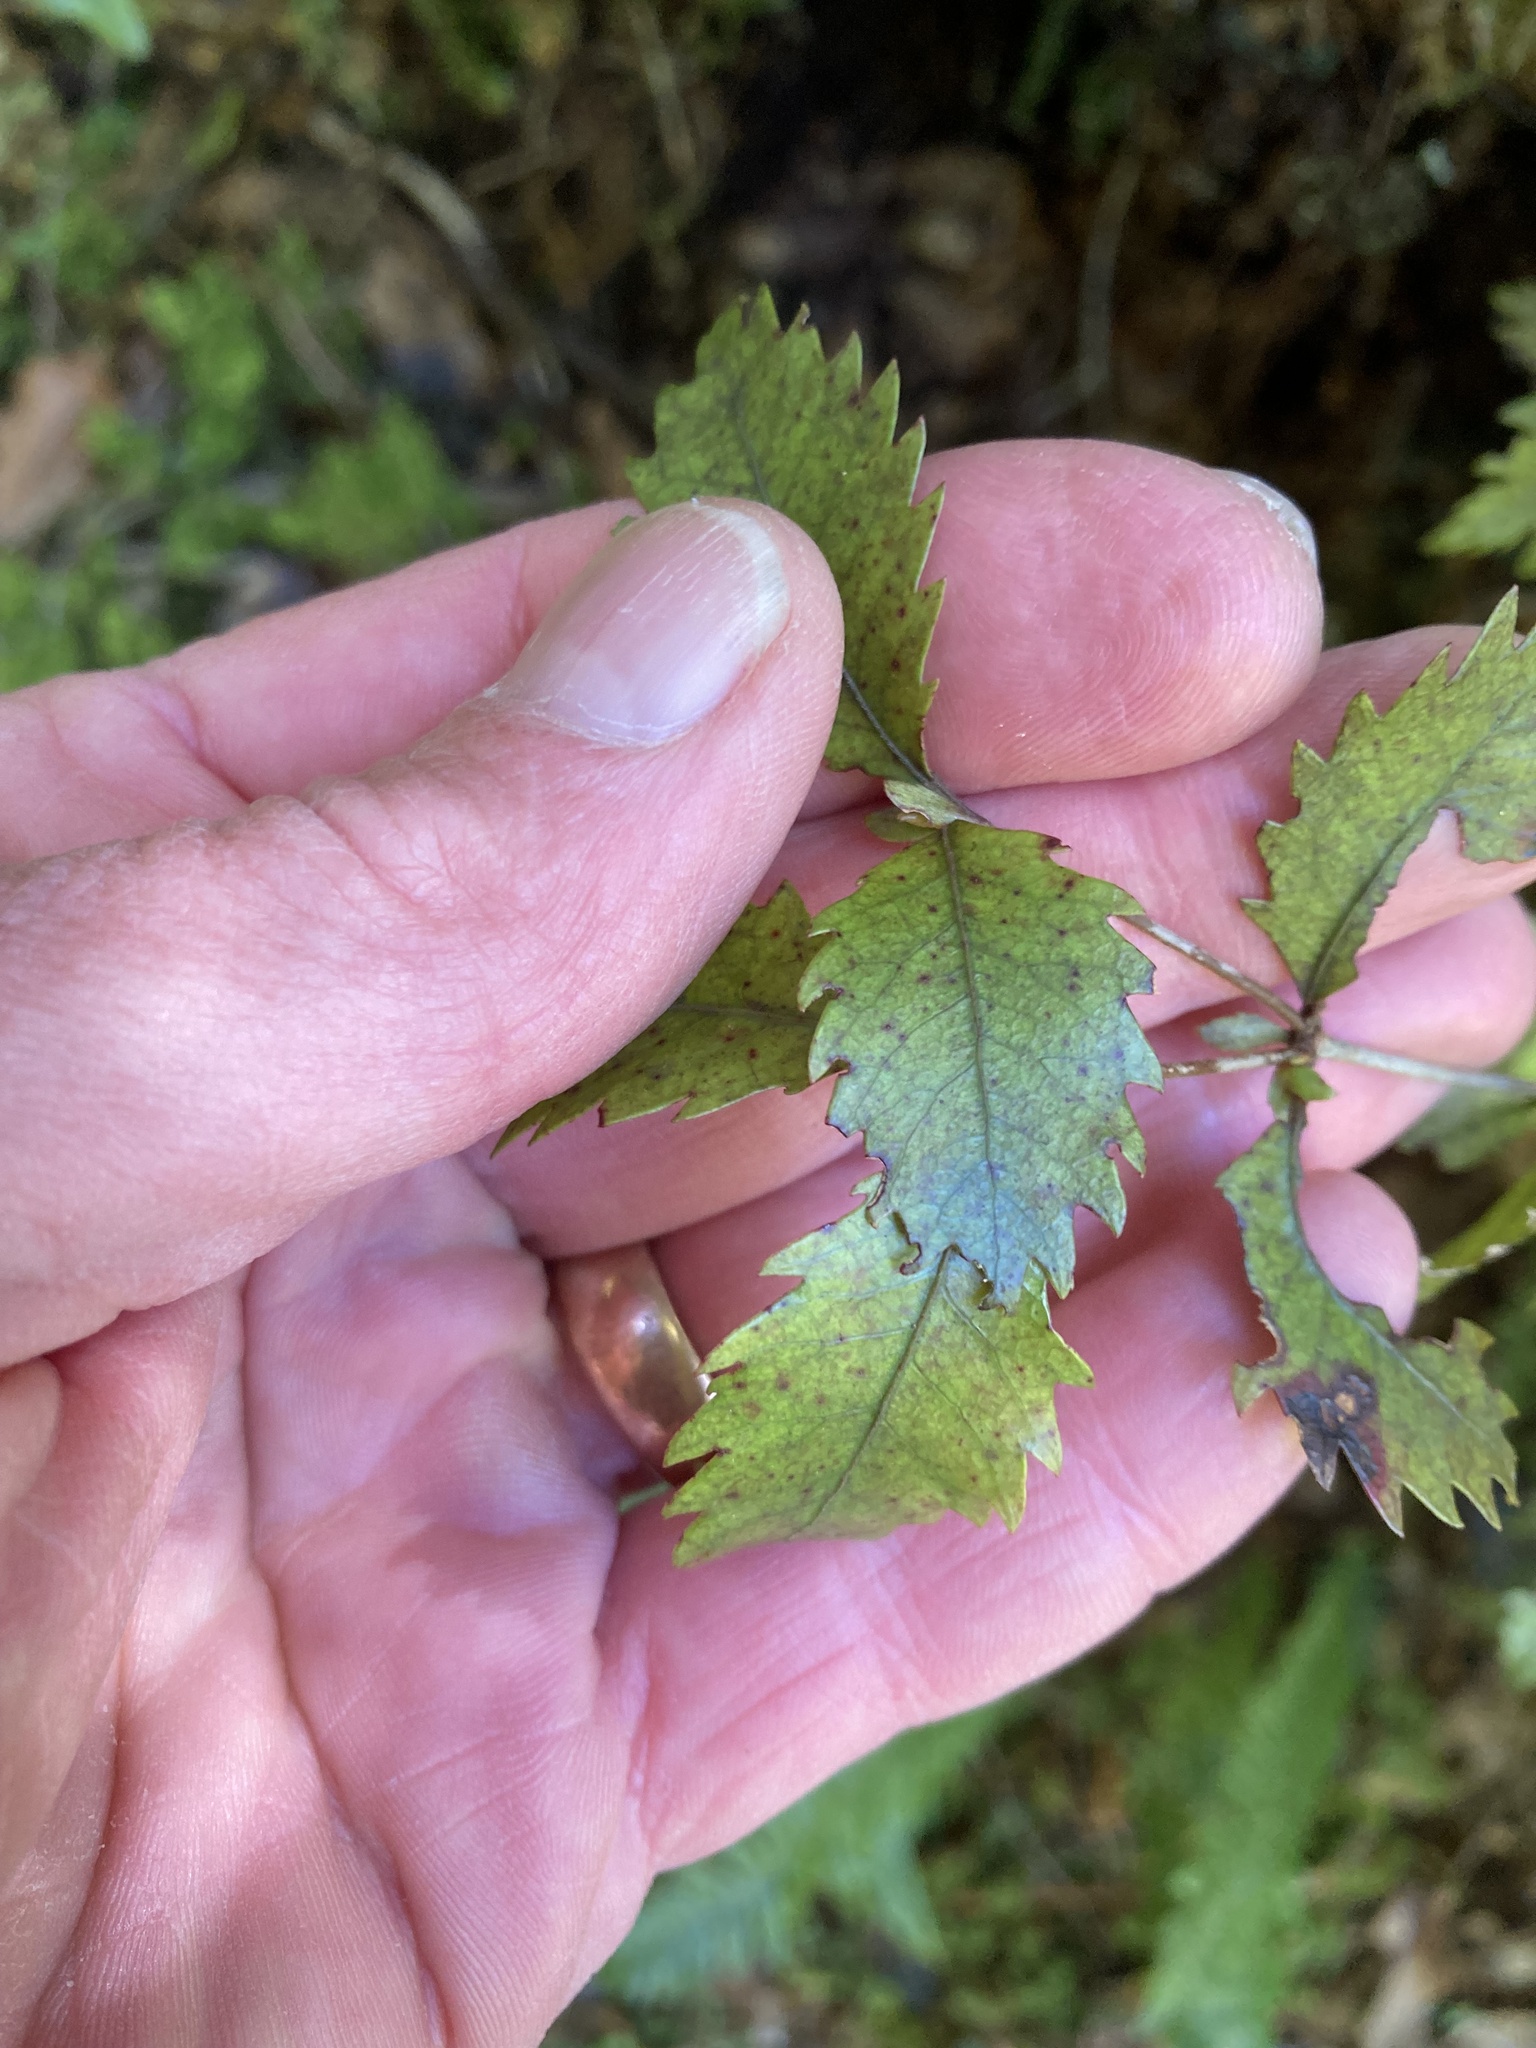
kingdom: Plantae
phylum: Tracheophyta
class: Magnoliopsida
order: Oxalidales
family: Cunoniaceae
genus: Pterophylla
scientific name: Pterophylla racemosa
